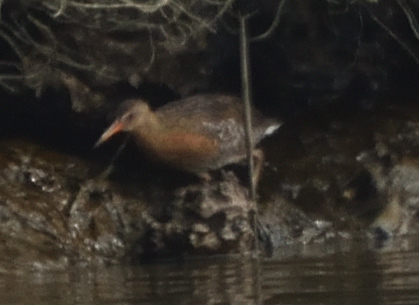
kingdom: Animalia
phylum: Chordata
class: Aves
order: Gruiformes
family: Rallidae
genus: Rallus
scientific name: Rallus obsoletus
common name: Ridgway's rail
